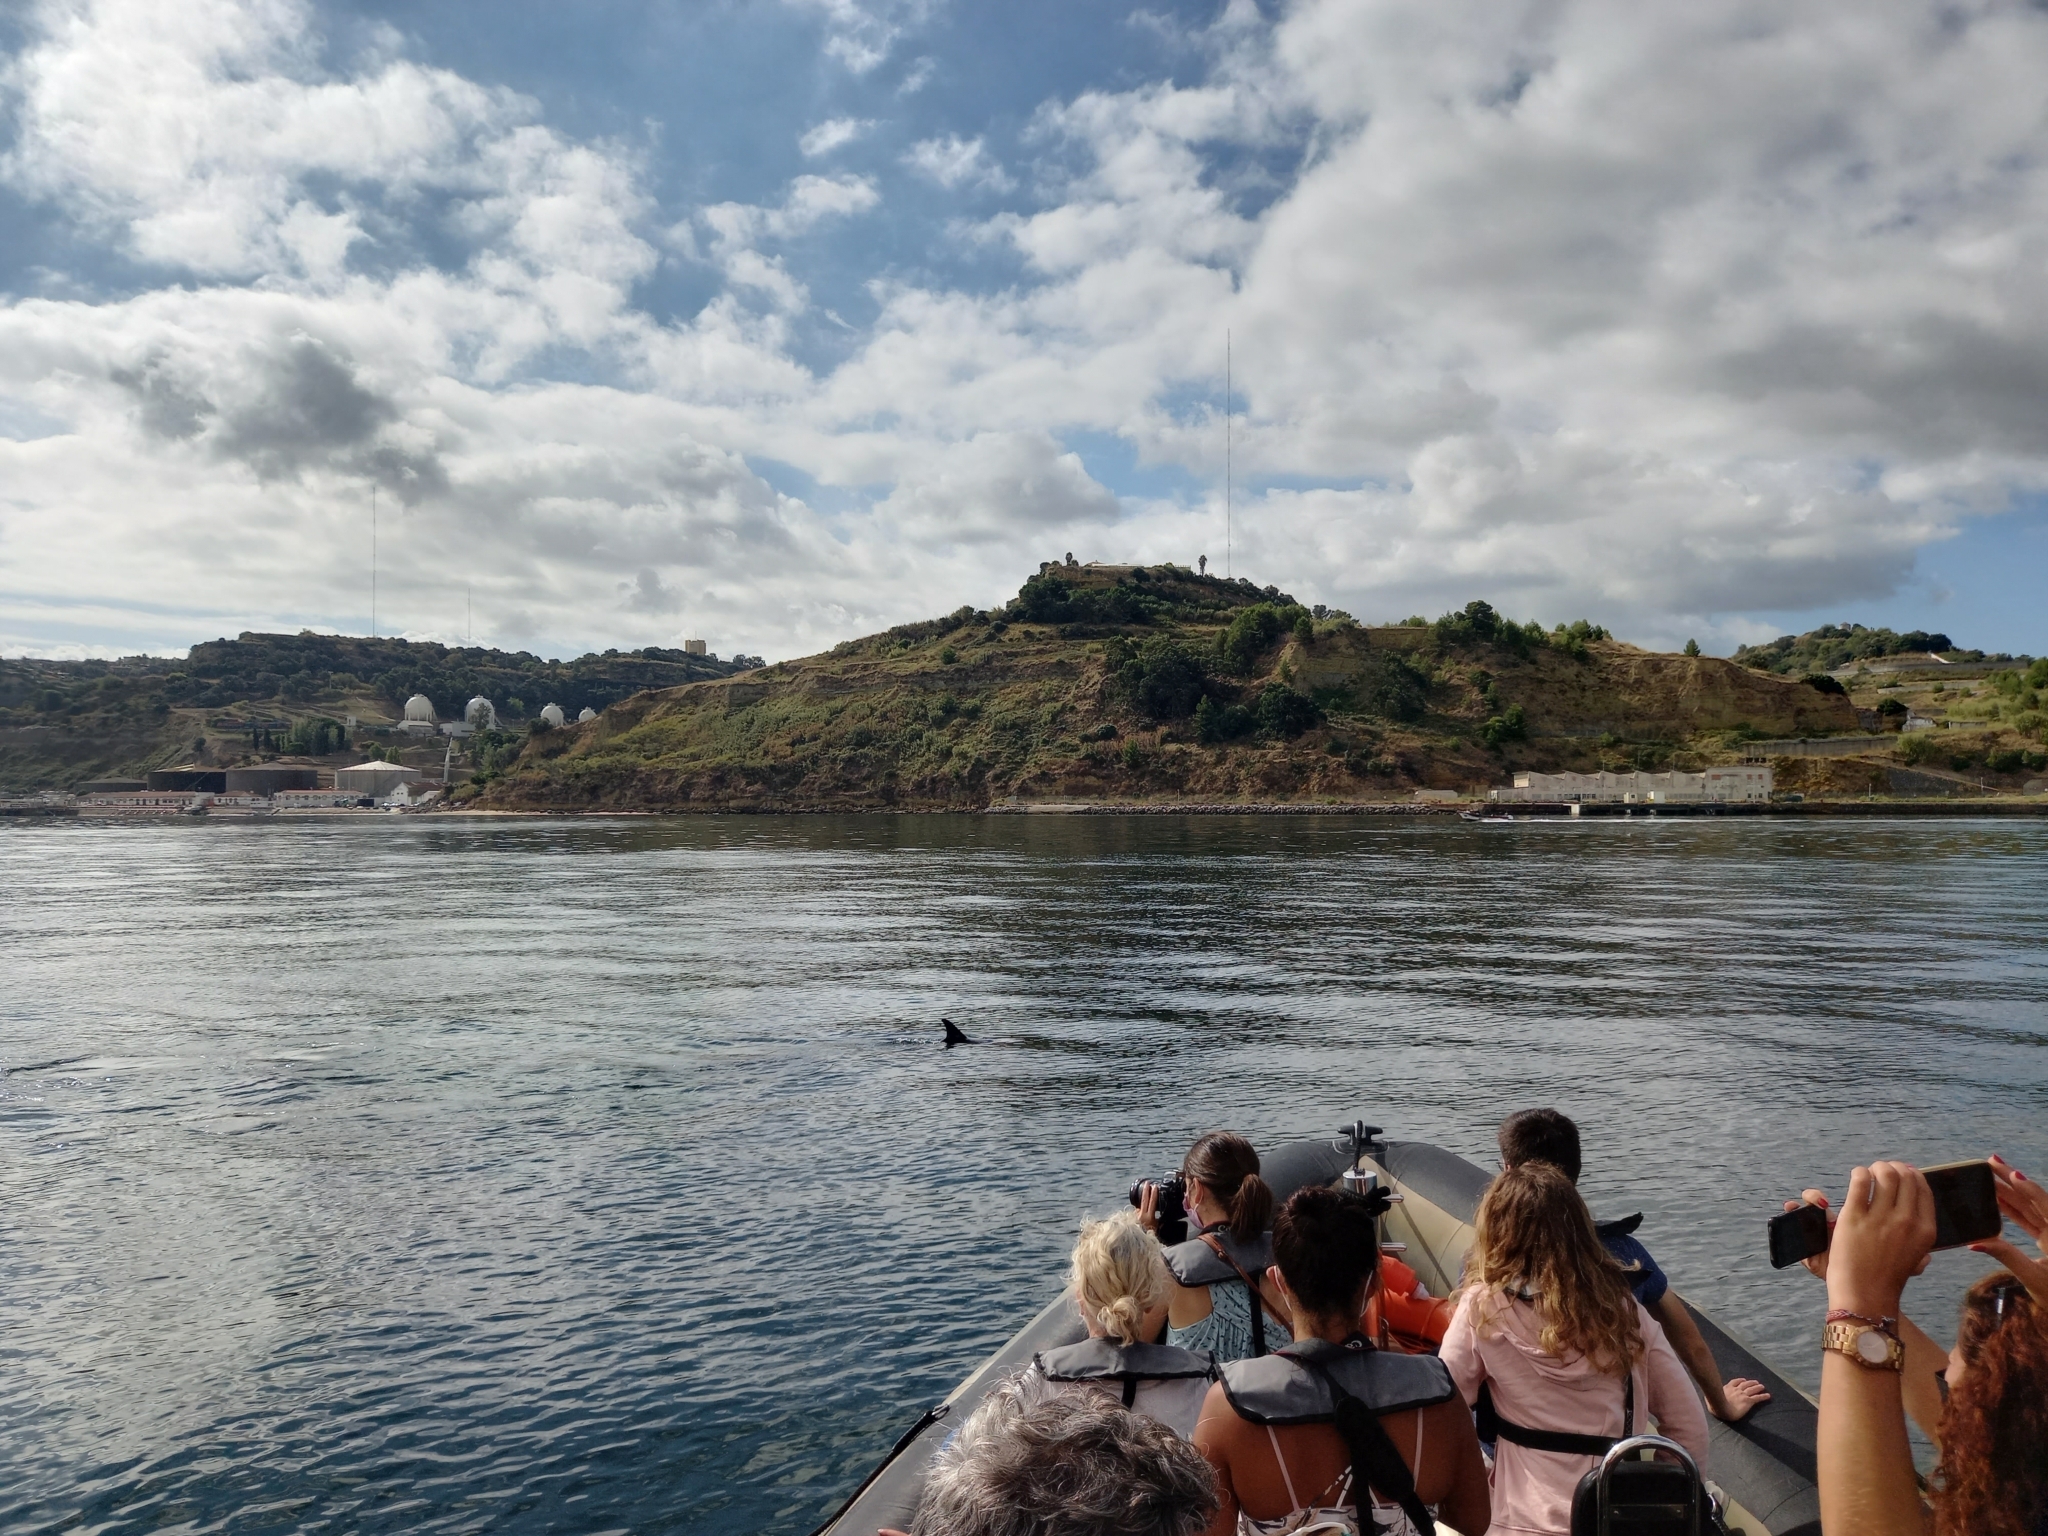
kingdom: Animalia
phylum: Chordata
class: Mammalia
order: Cetacea
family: Delphinidae
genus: Delphinus
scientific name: Delphinus delphis
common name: Common dolphin
